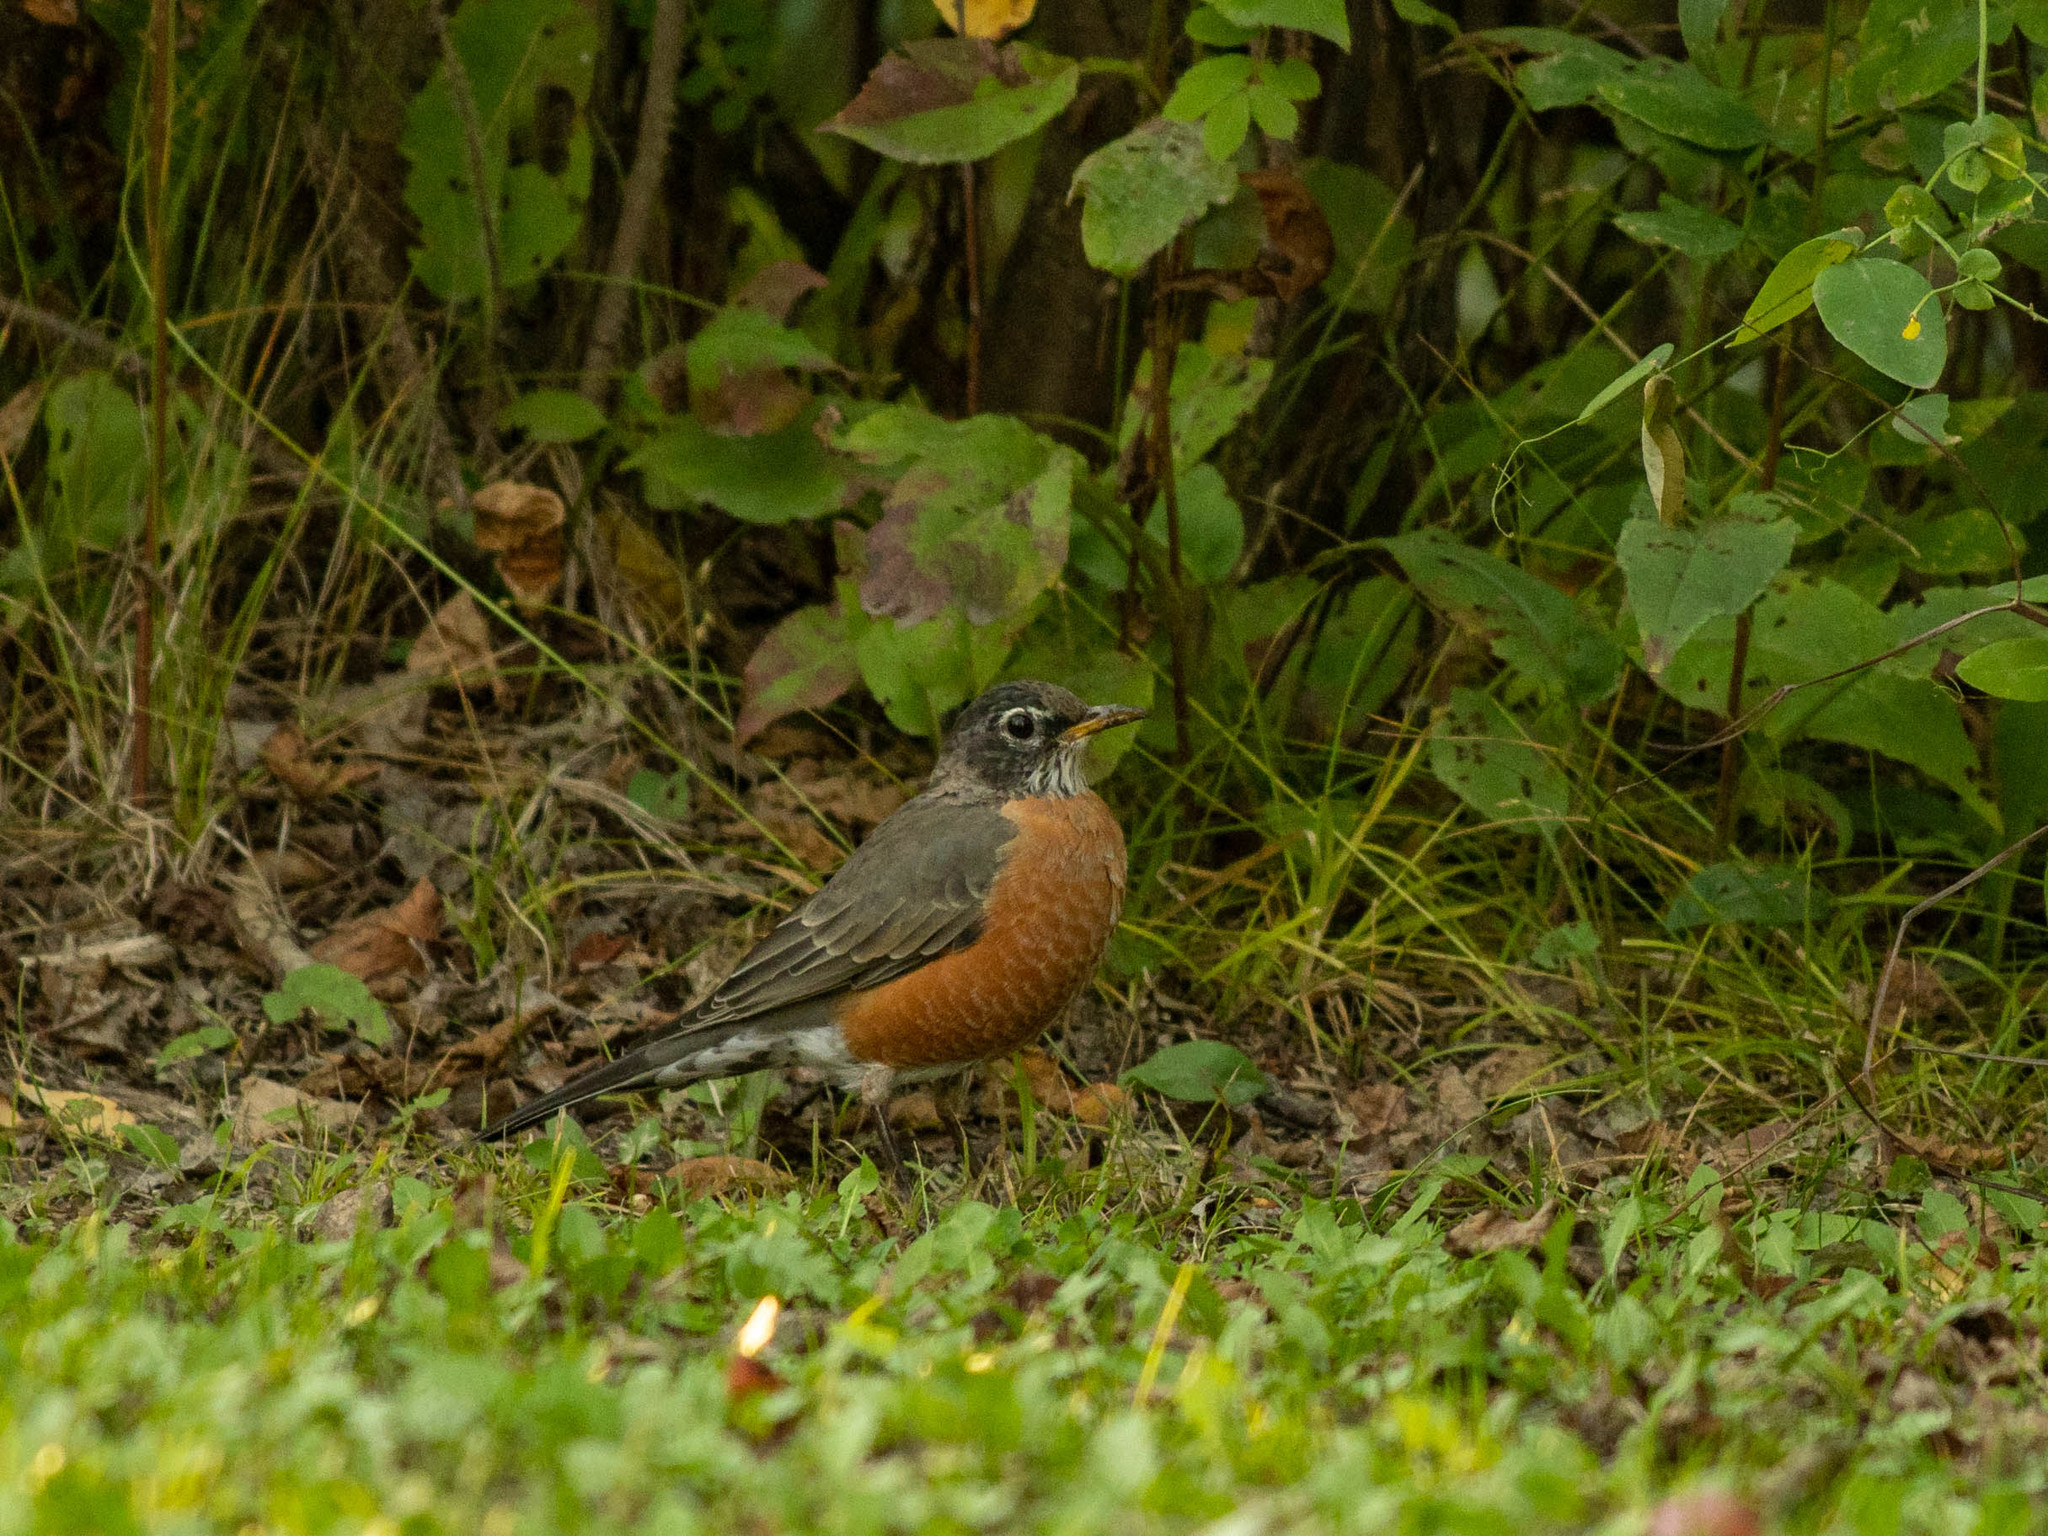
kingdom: Animalia
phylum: Chordata
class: Aves
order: Passeriformes
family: Turdidae
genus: Turdus
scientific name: Turdus migratorius
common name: American robin
